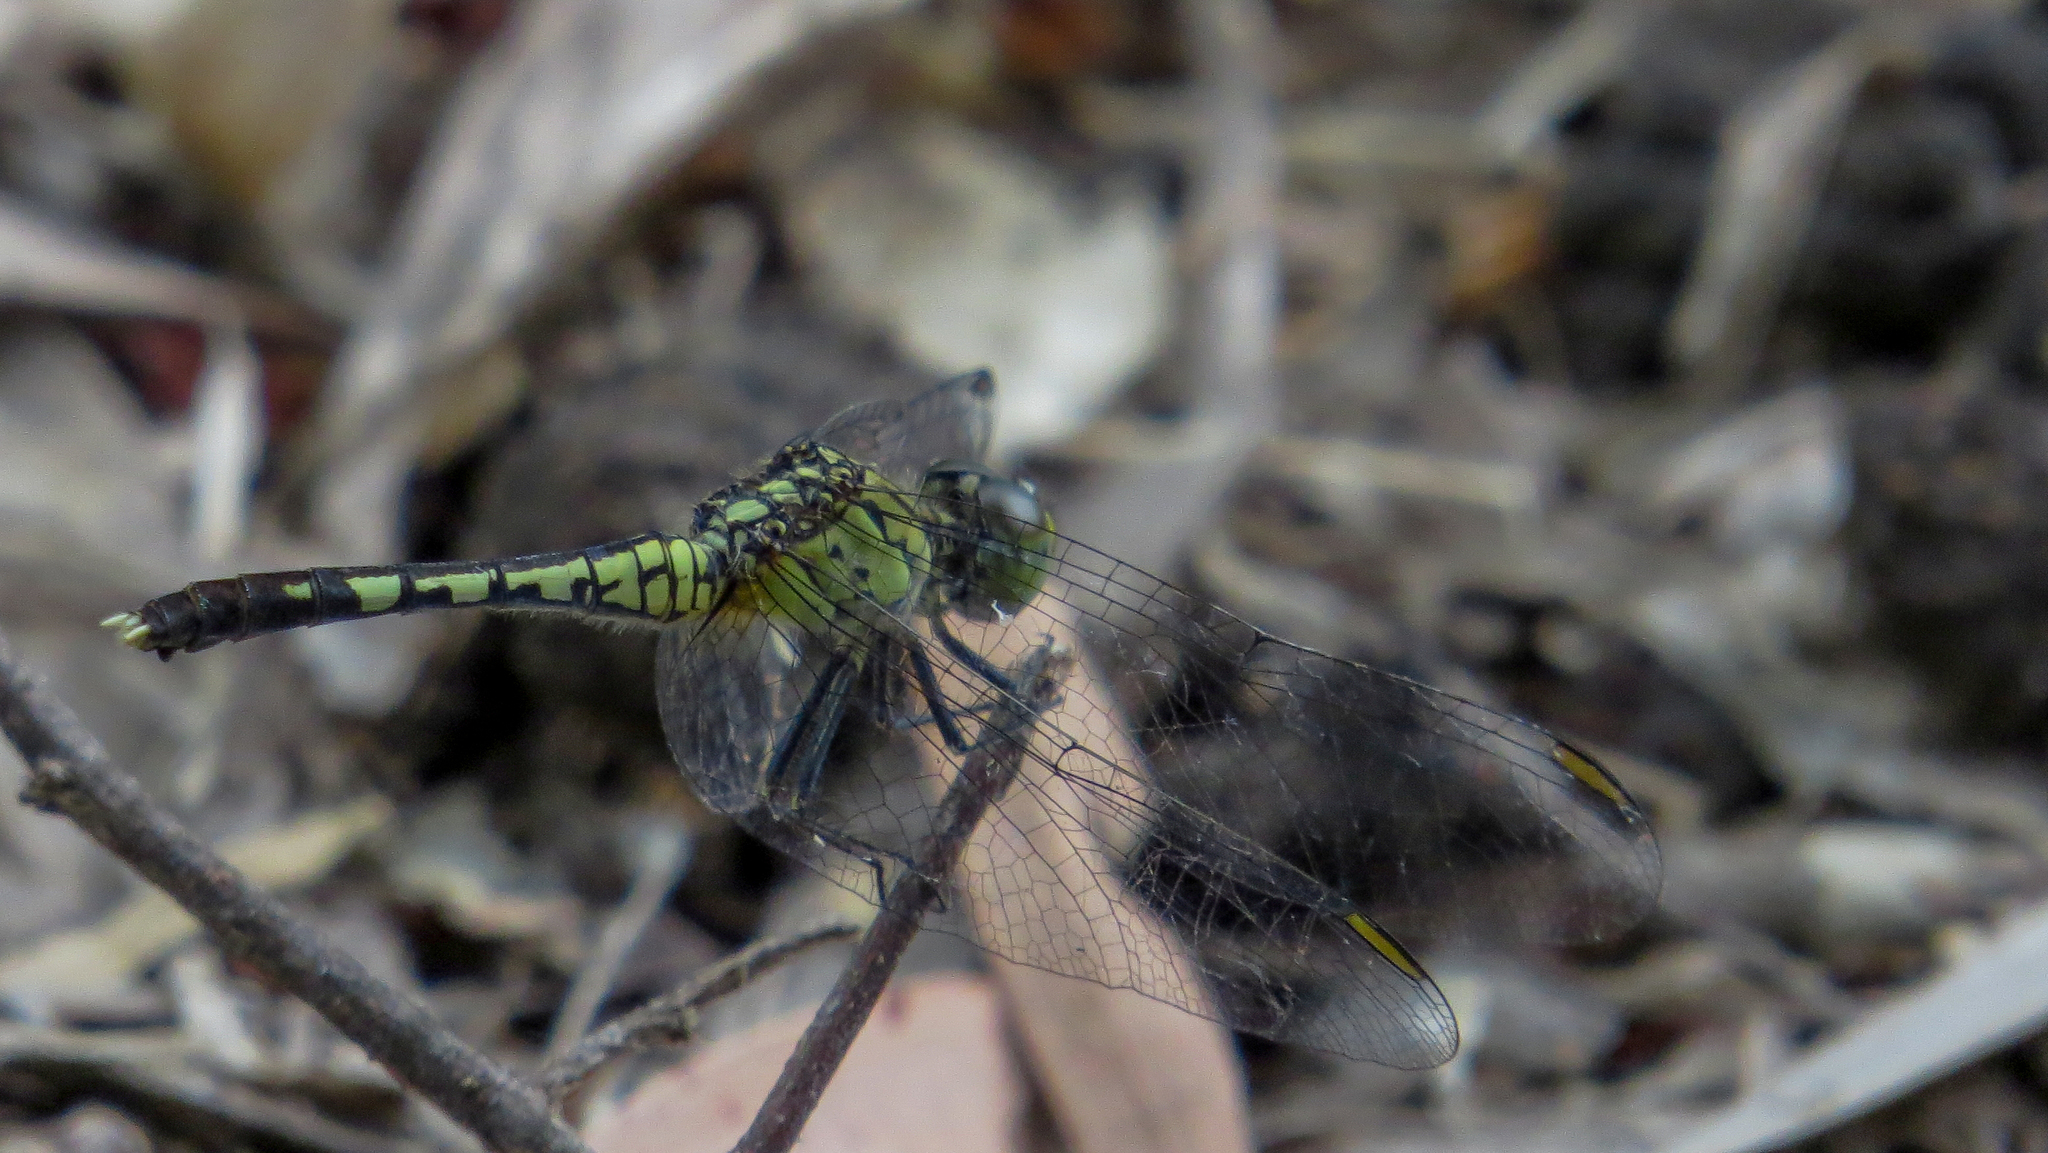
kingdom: Animalia
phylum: Arthropoda
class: Insecta
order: Odonata
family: Libellulidae
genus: Diplacodes
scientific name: Diplacodes trivialis
